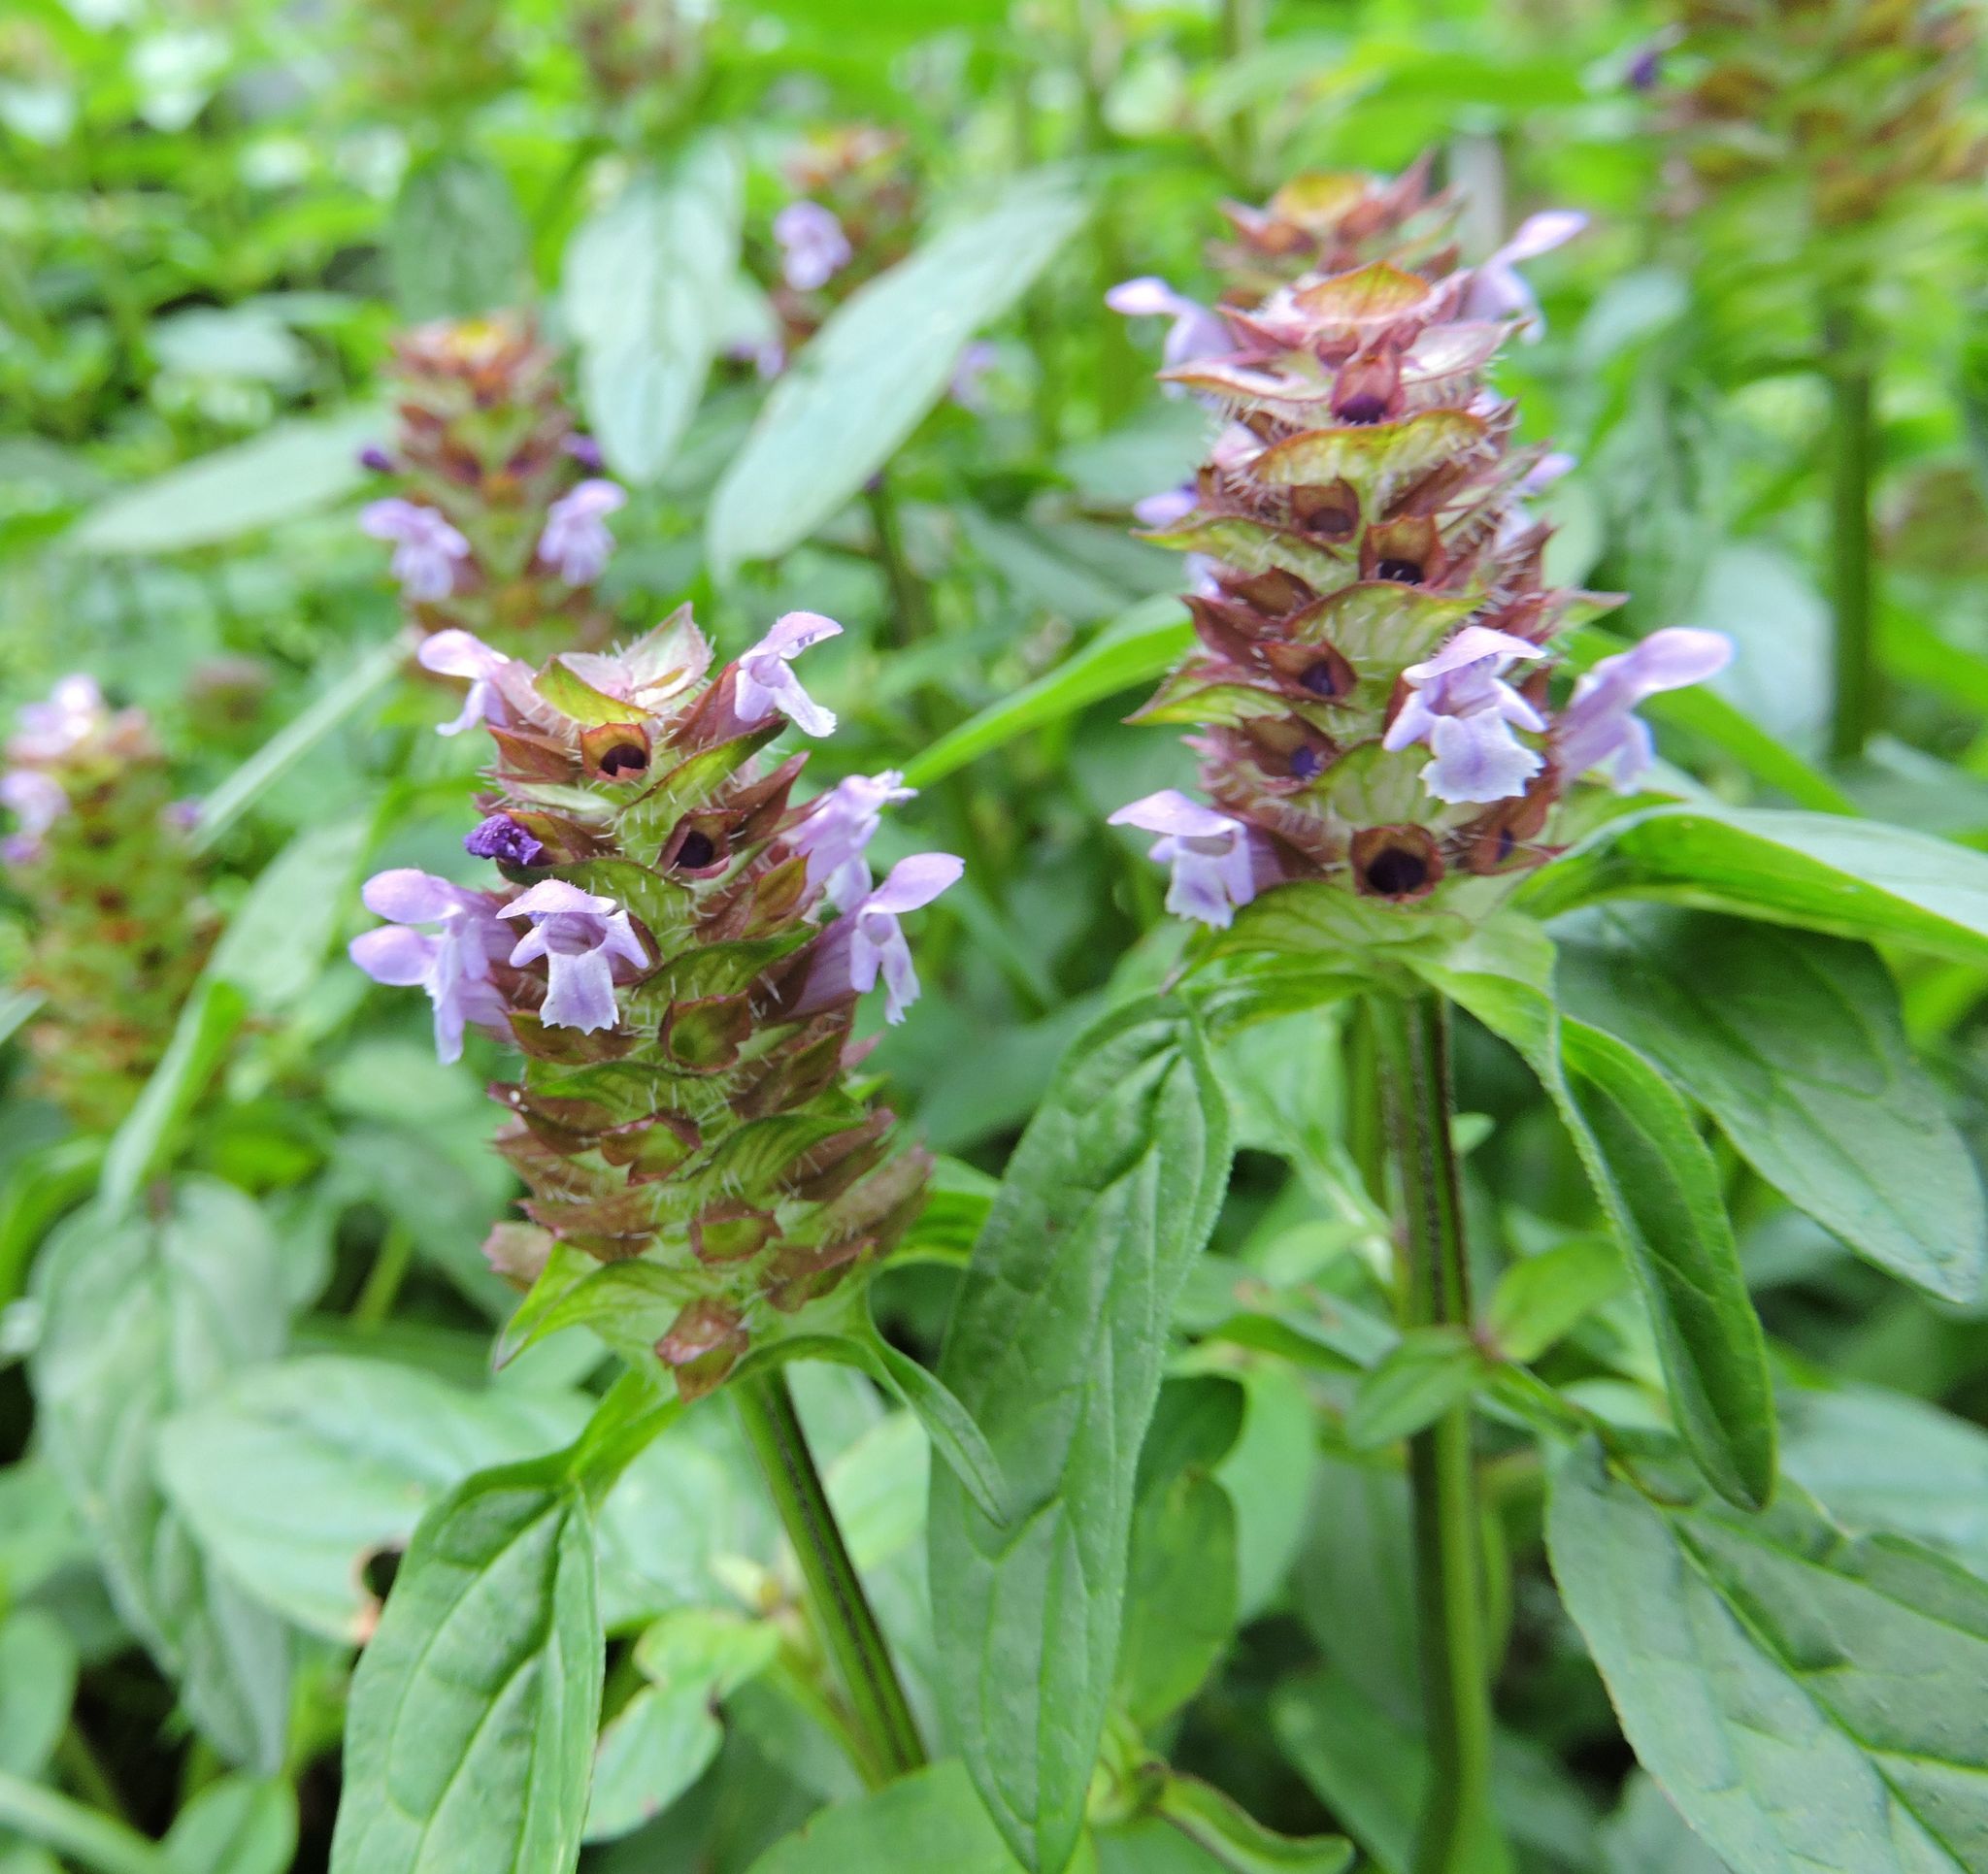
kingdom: Plantae
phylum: Tracheophyta
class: Magnoliopsida
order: Lamiales
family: Lamiaceae
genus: Prunella
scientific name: Prunella vulgaris
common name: Heal-all
